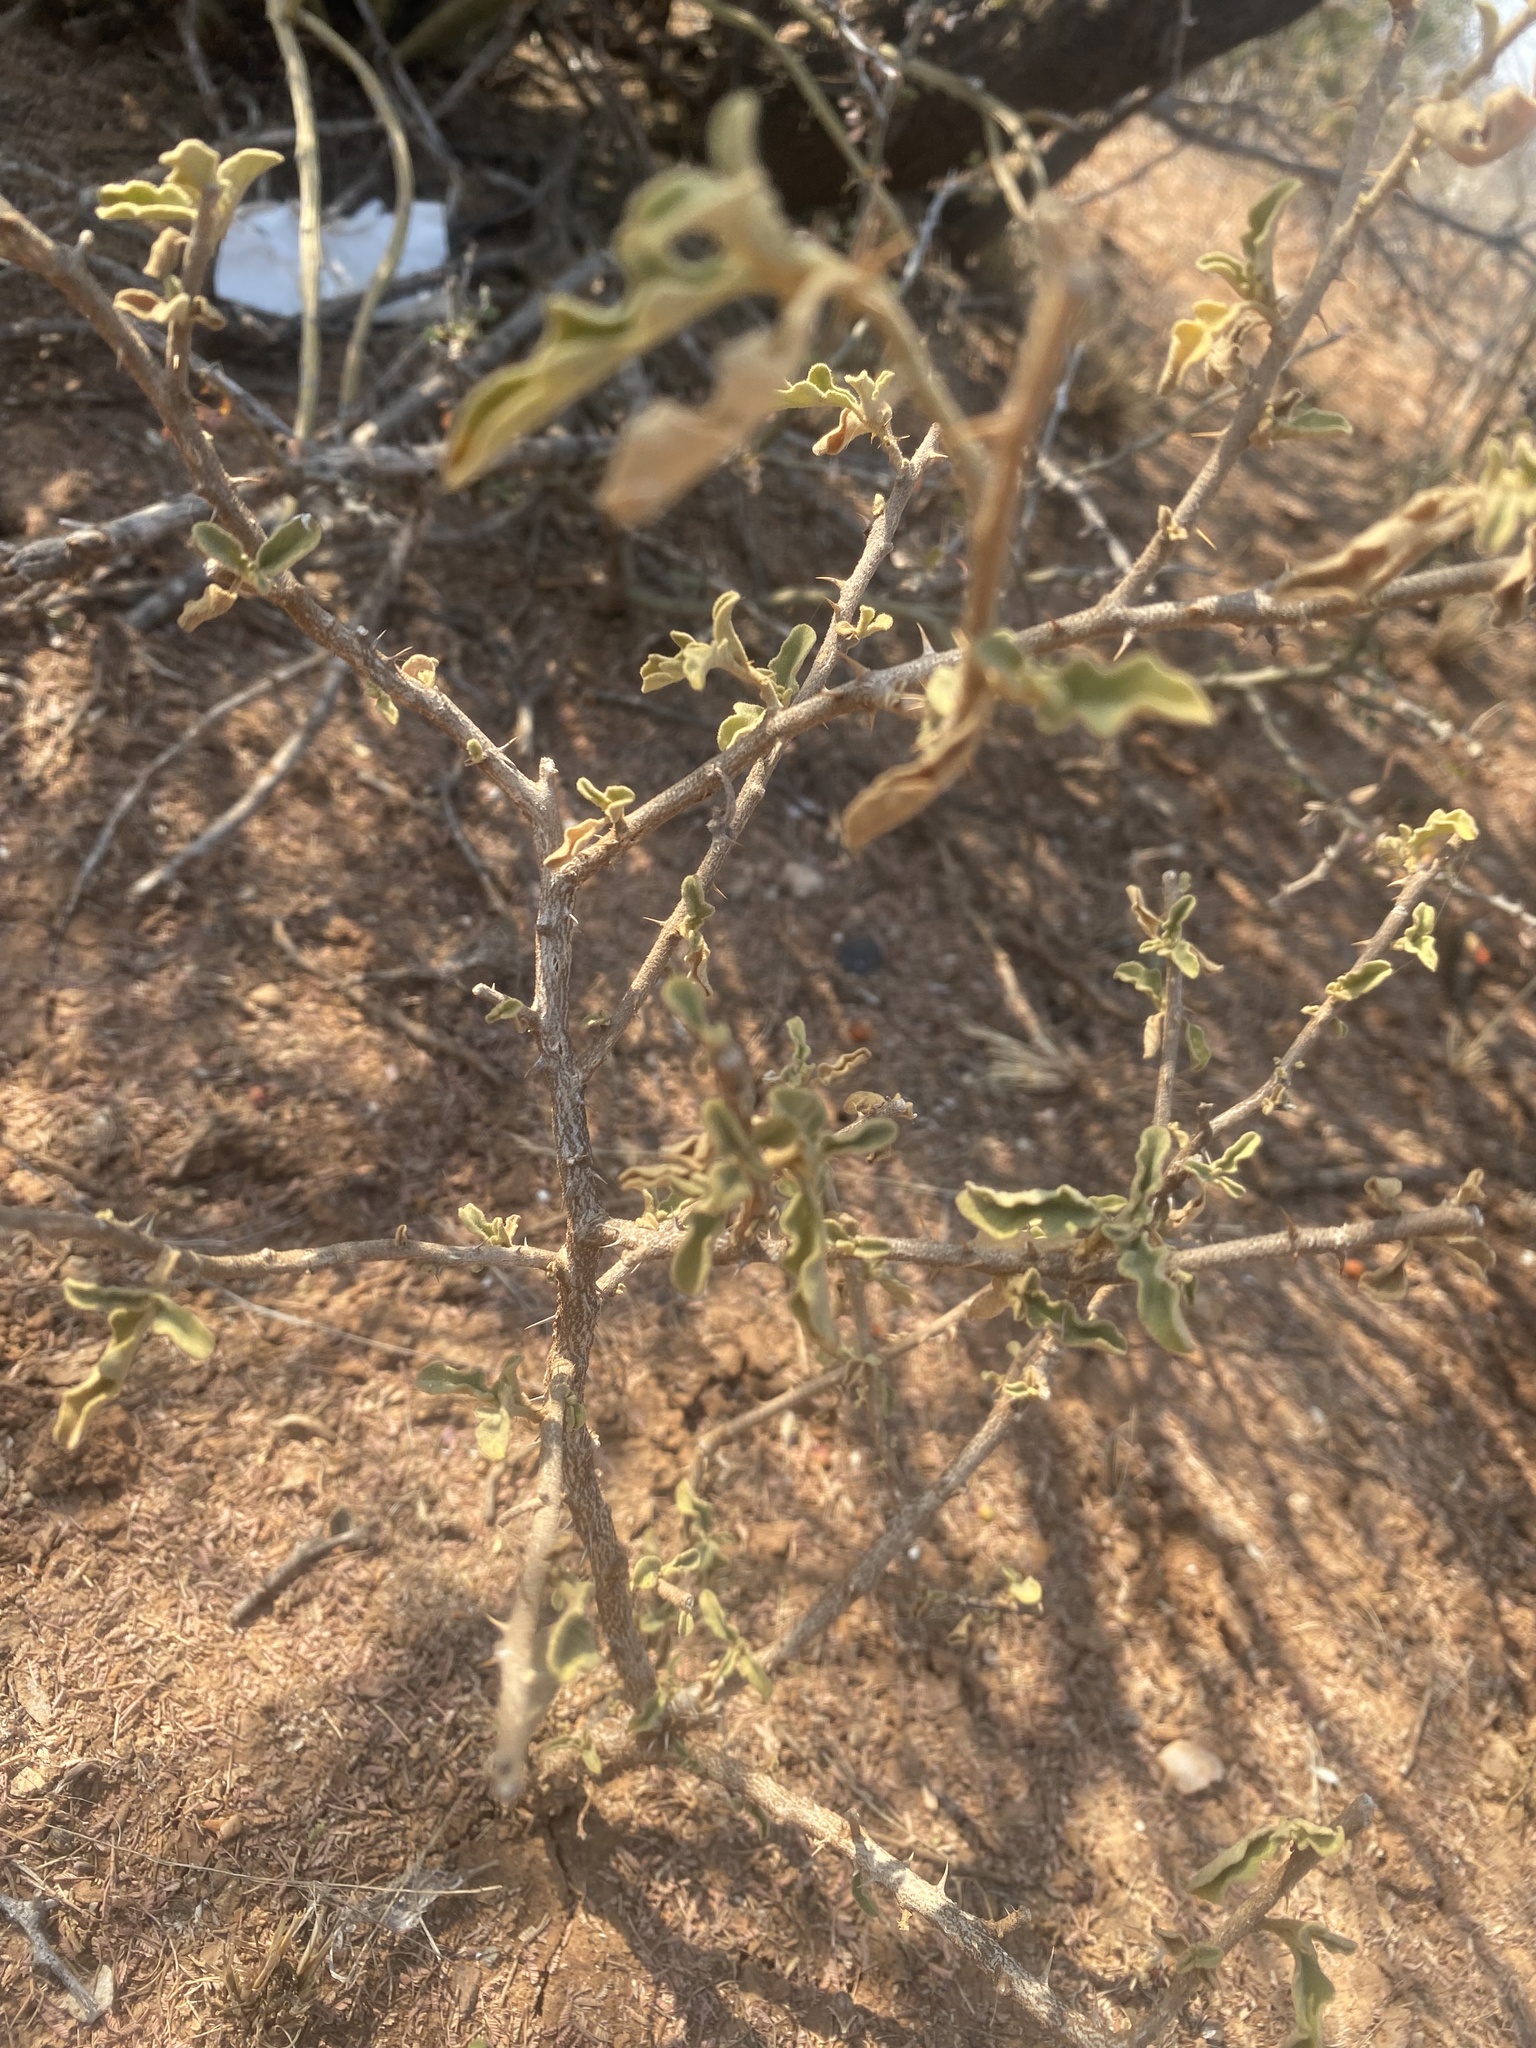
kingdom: Plantae
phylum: Tracheophyta
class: Magnoliopsida
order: Solanales
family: Solanaceae
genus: Solanum
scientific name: Solanum catombelense
